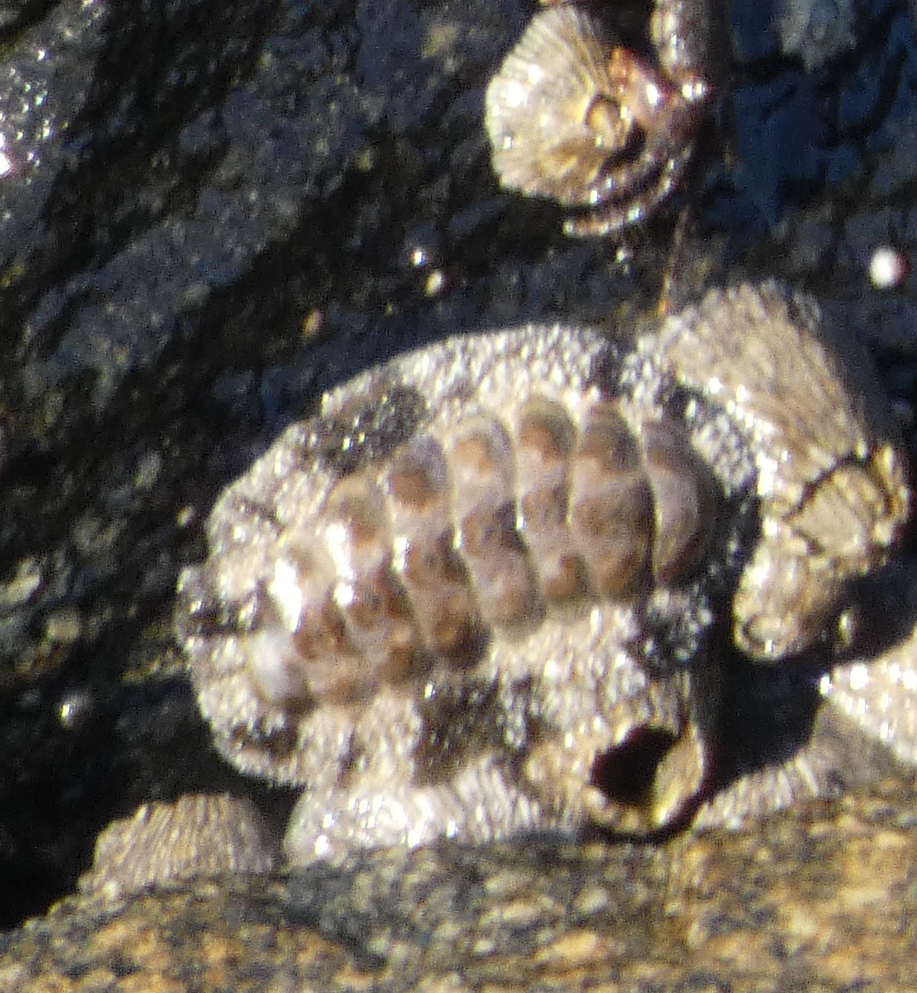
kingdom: Animalia
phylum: Mollusca
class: Polyplacophora
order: Chitonida
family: Chitonidae
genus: Acanthopleura
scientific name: Acanthopleura granulata
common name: West indian fuzzy chiton
